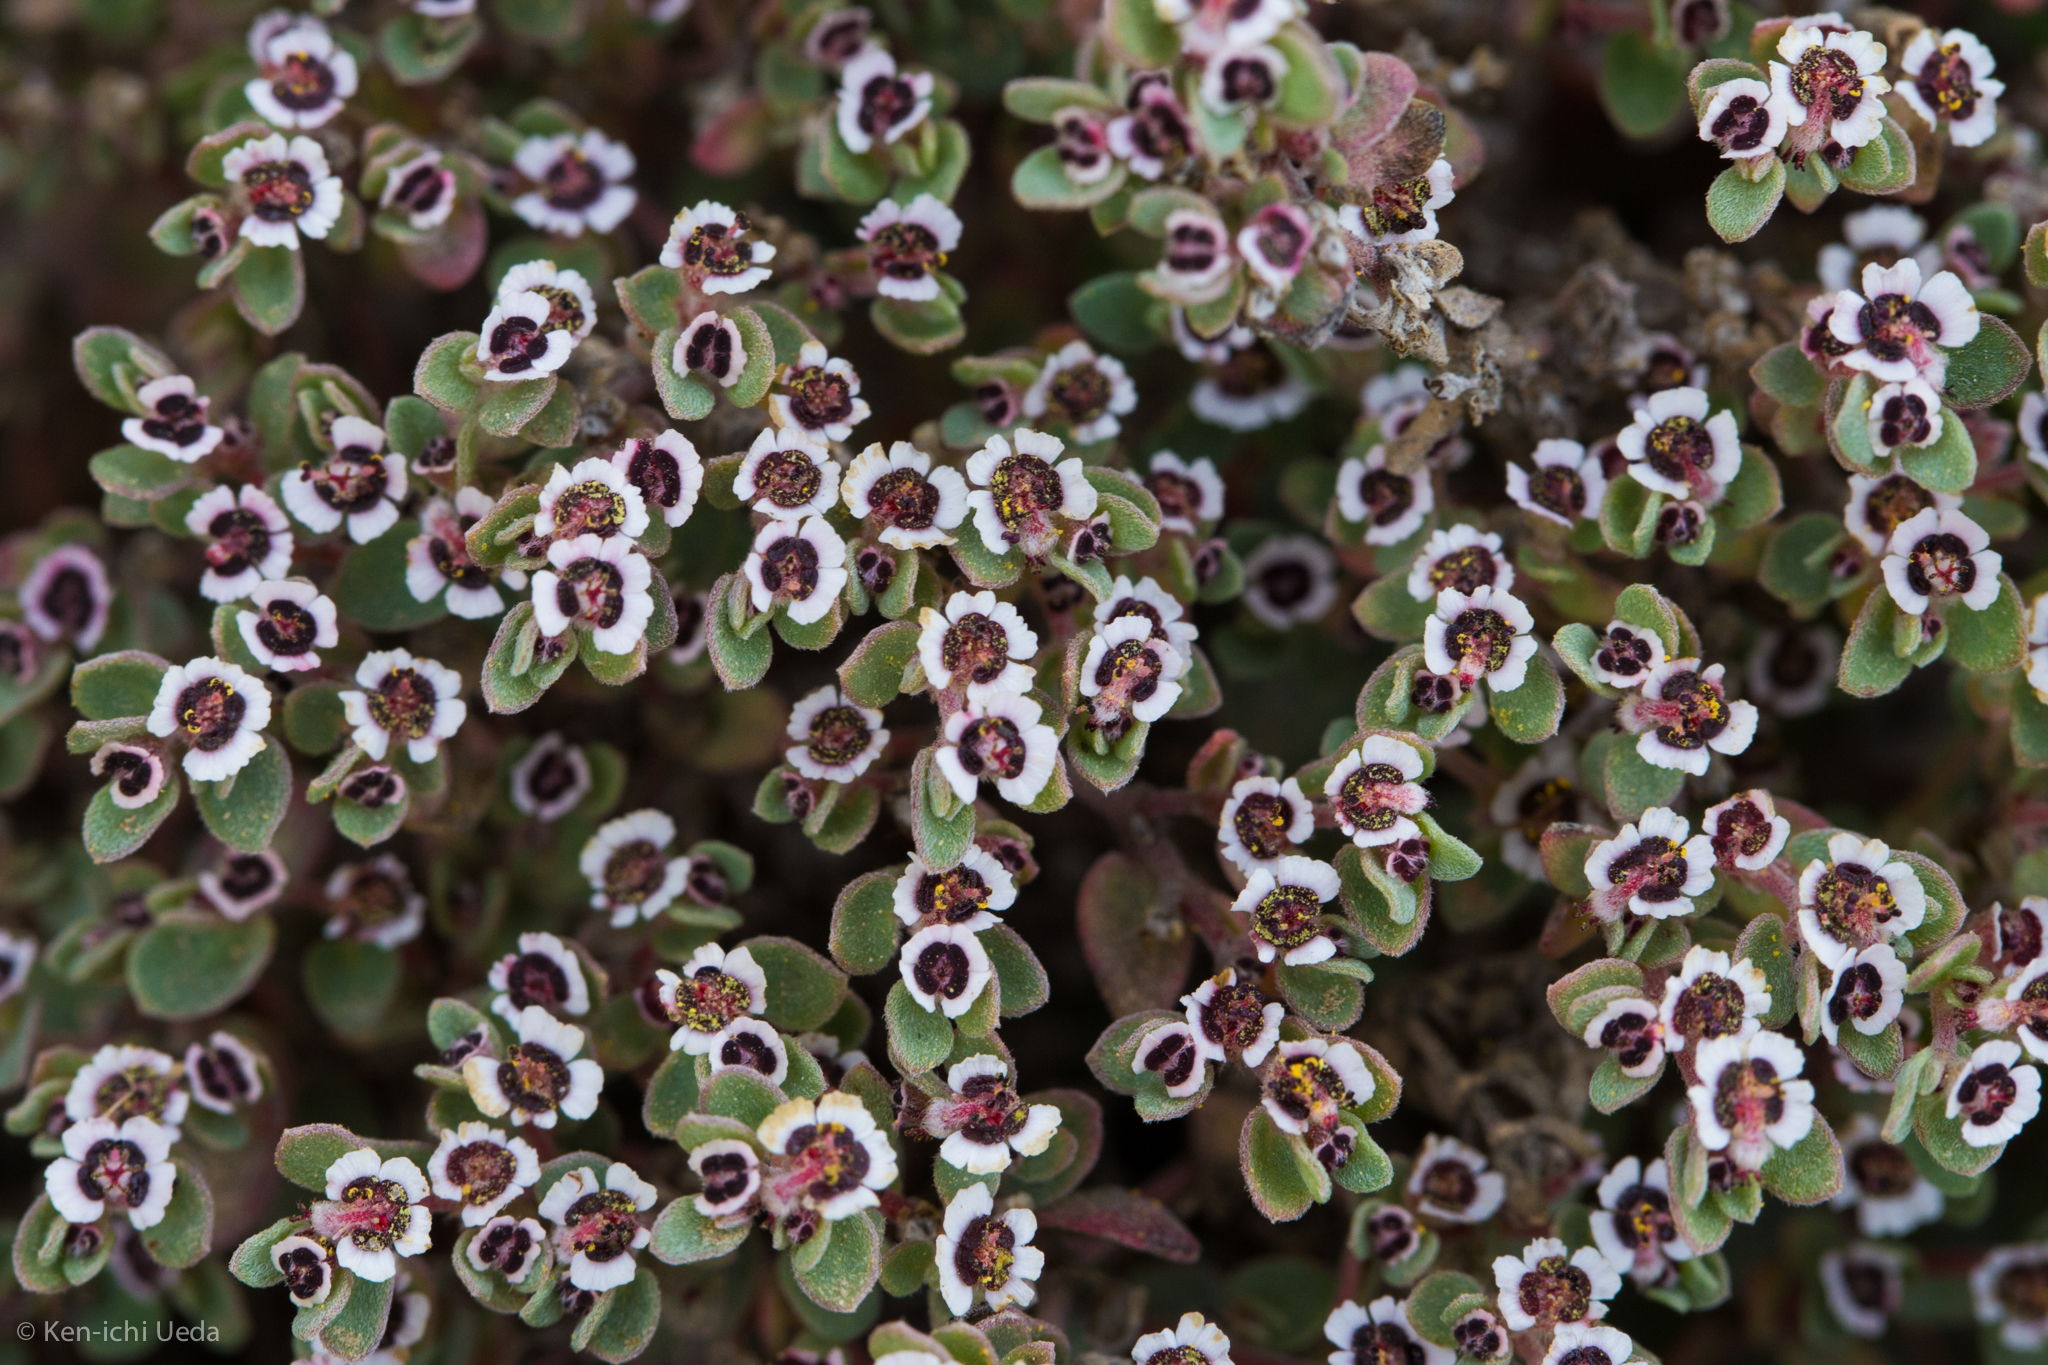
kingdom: Plantae
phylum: Tracheophyta
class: Magnoliopsida
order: Malpighiales
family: Euphorbiaceae
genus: Euphorbia
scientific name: Euphorbia melanadenia
